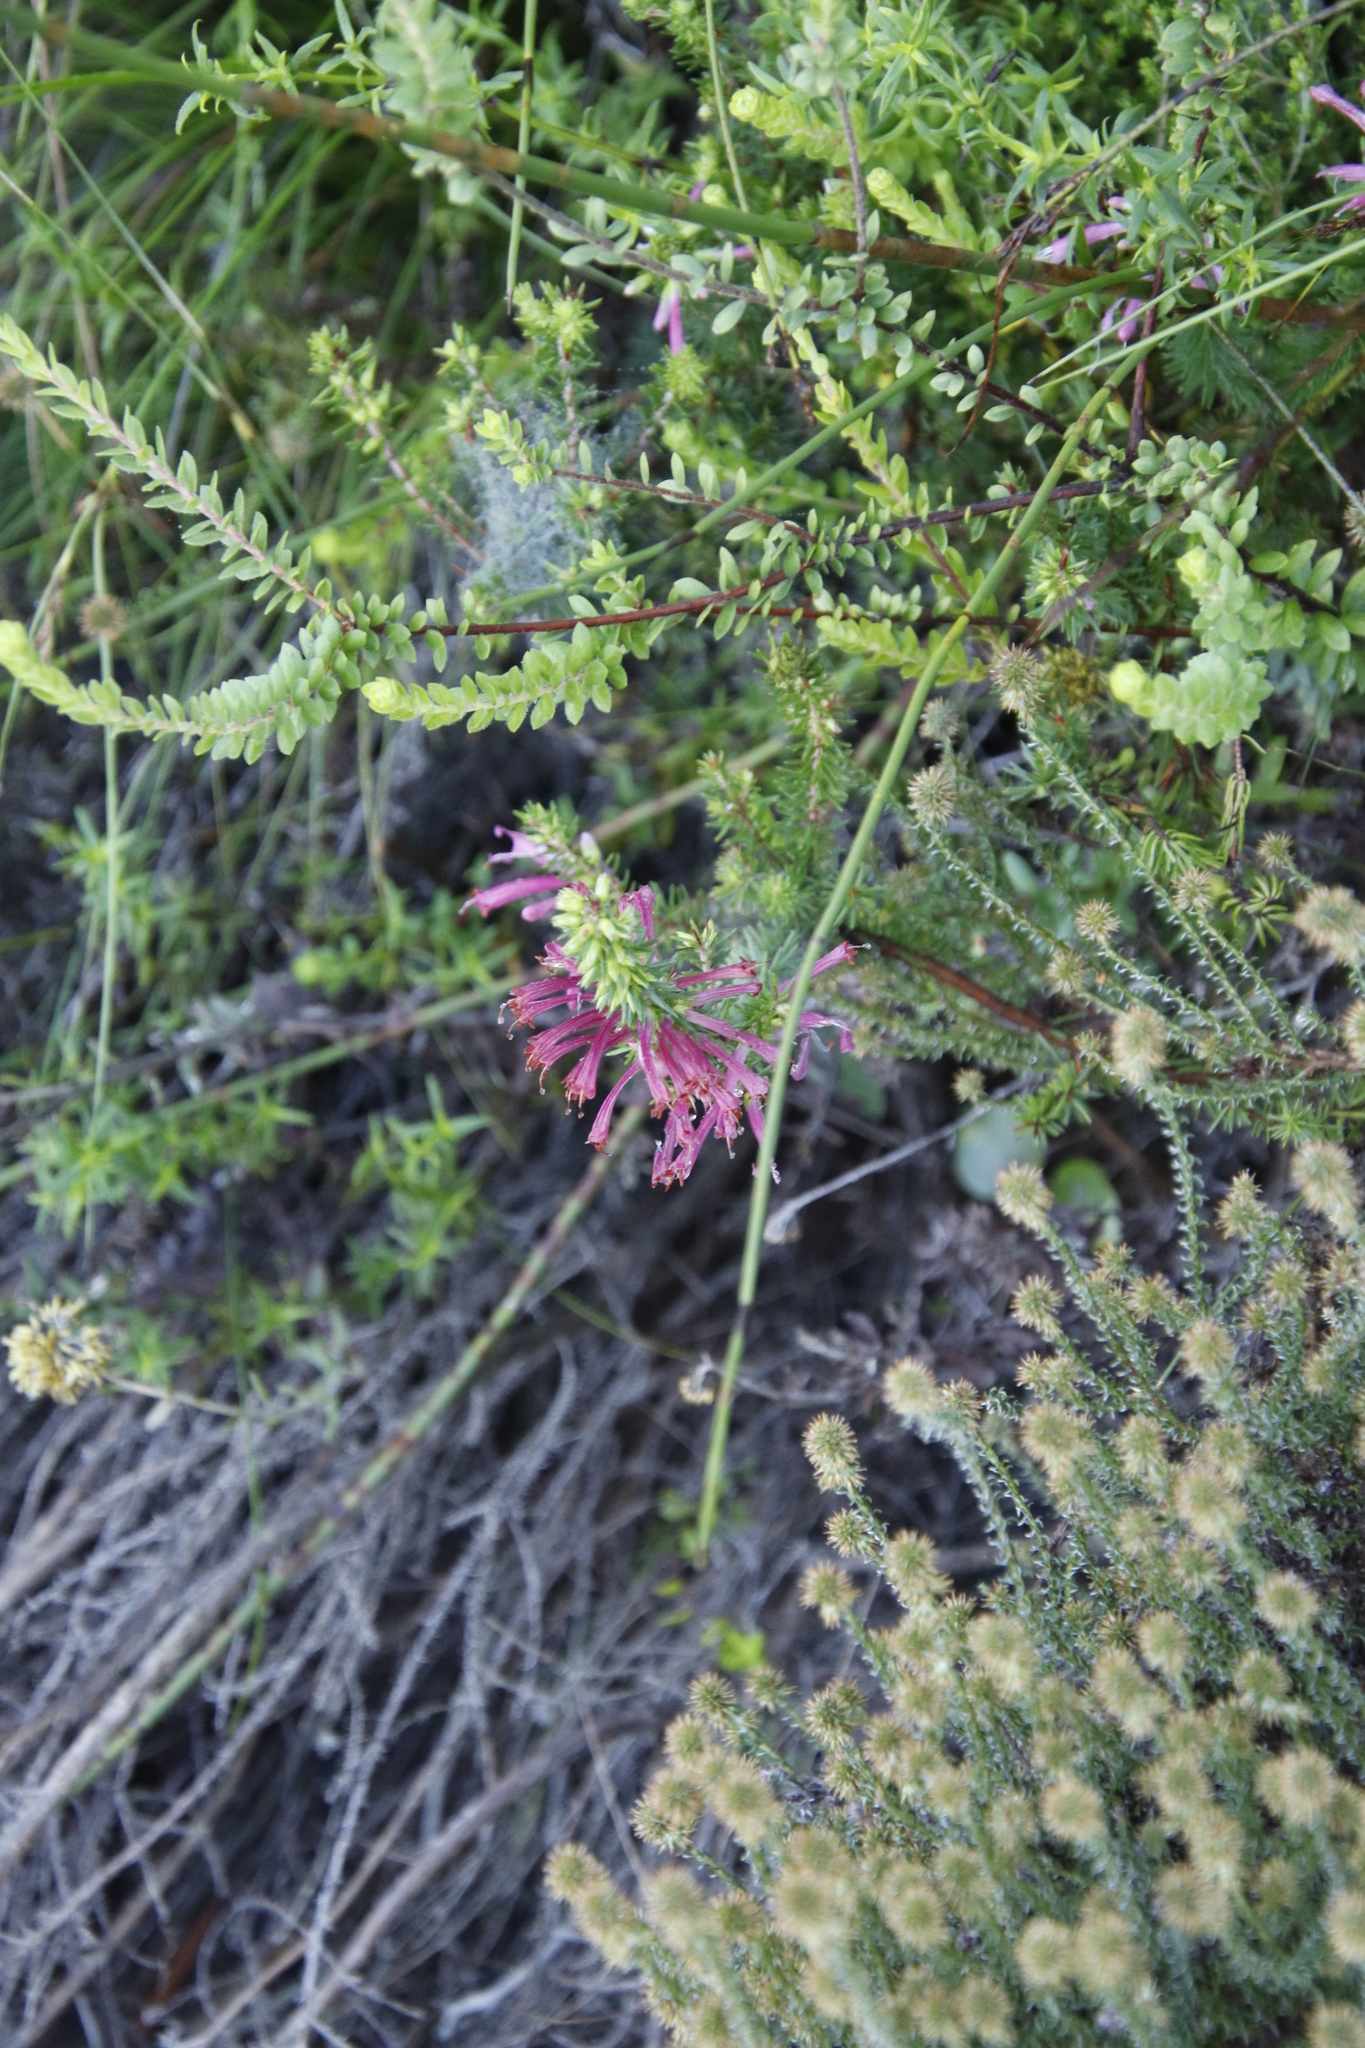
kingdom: Plantae
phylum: Tracheophyta
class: Magnoliopsida
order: Ericales
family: Ericaceae
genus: Erica
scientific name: Erica abietina
